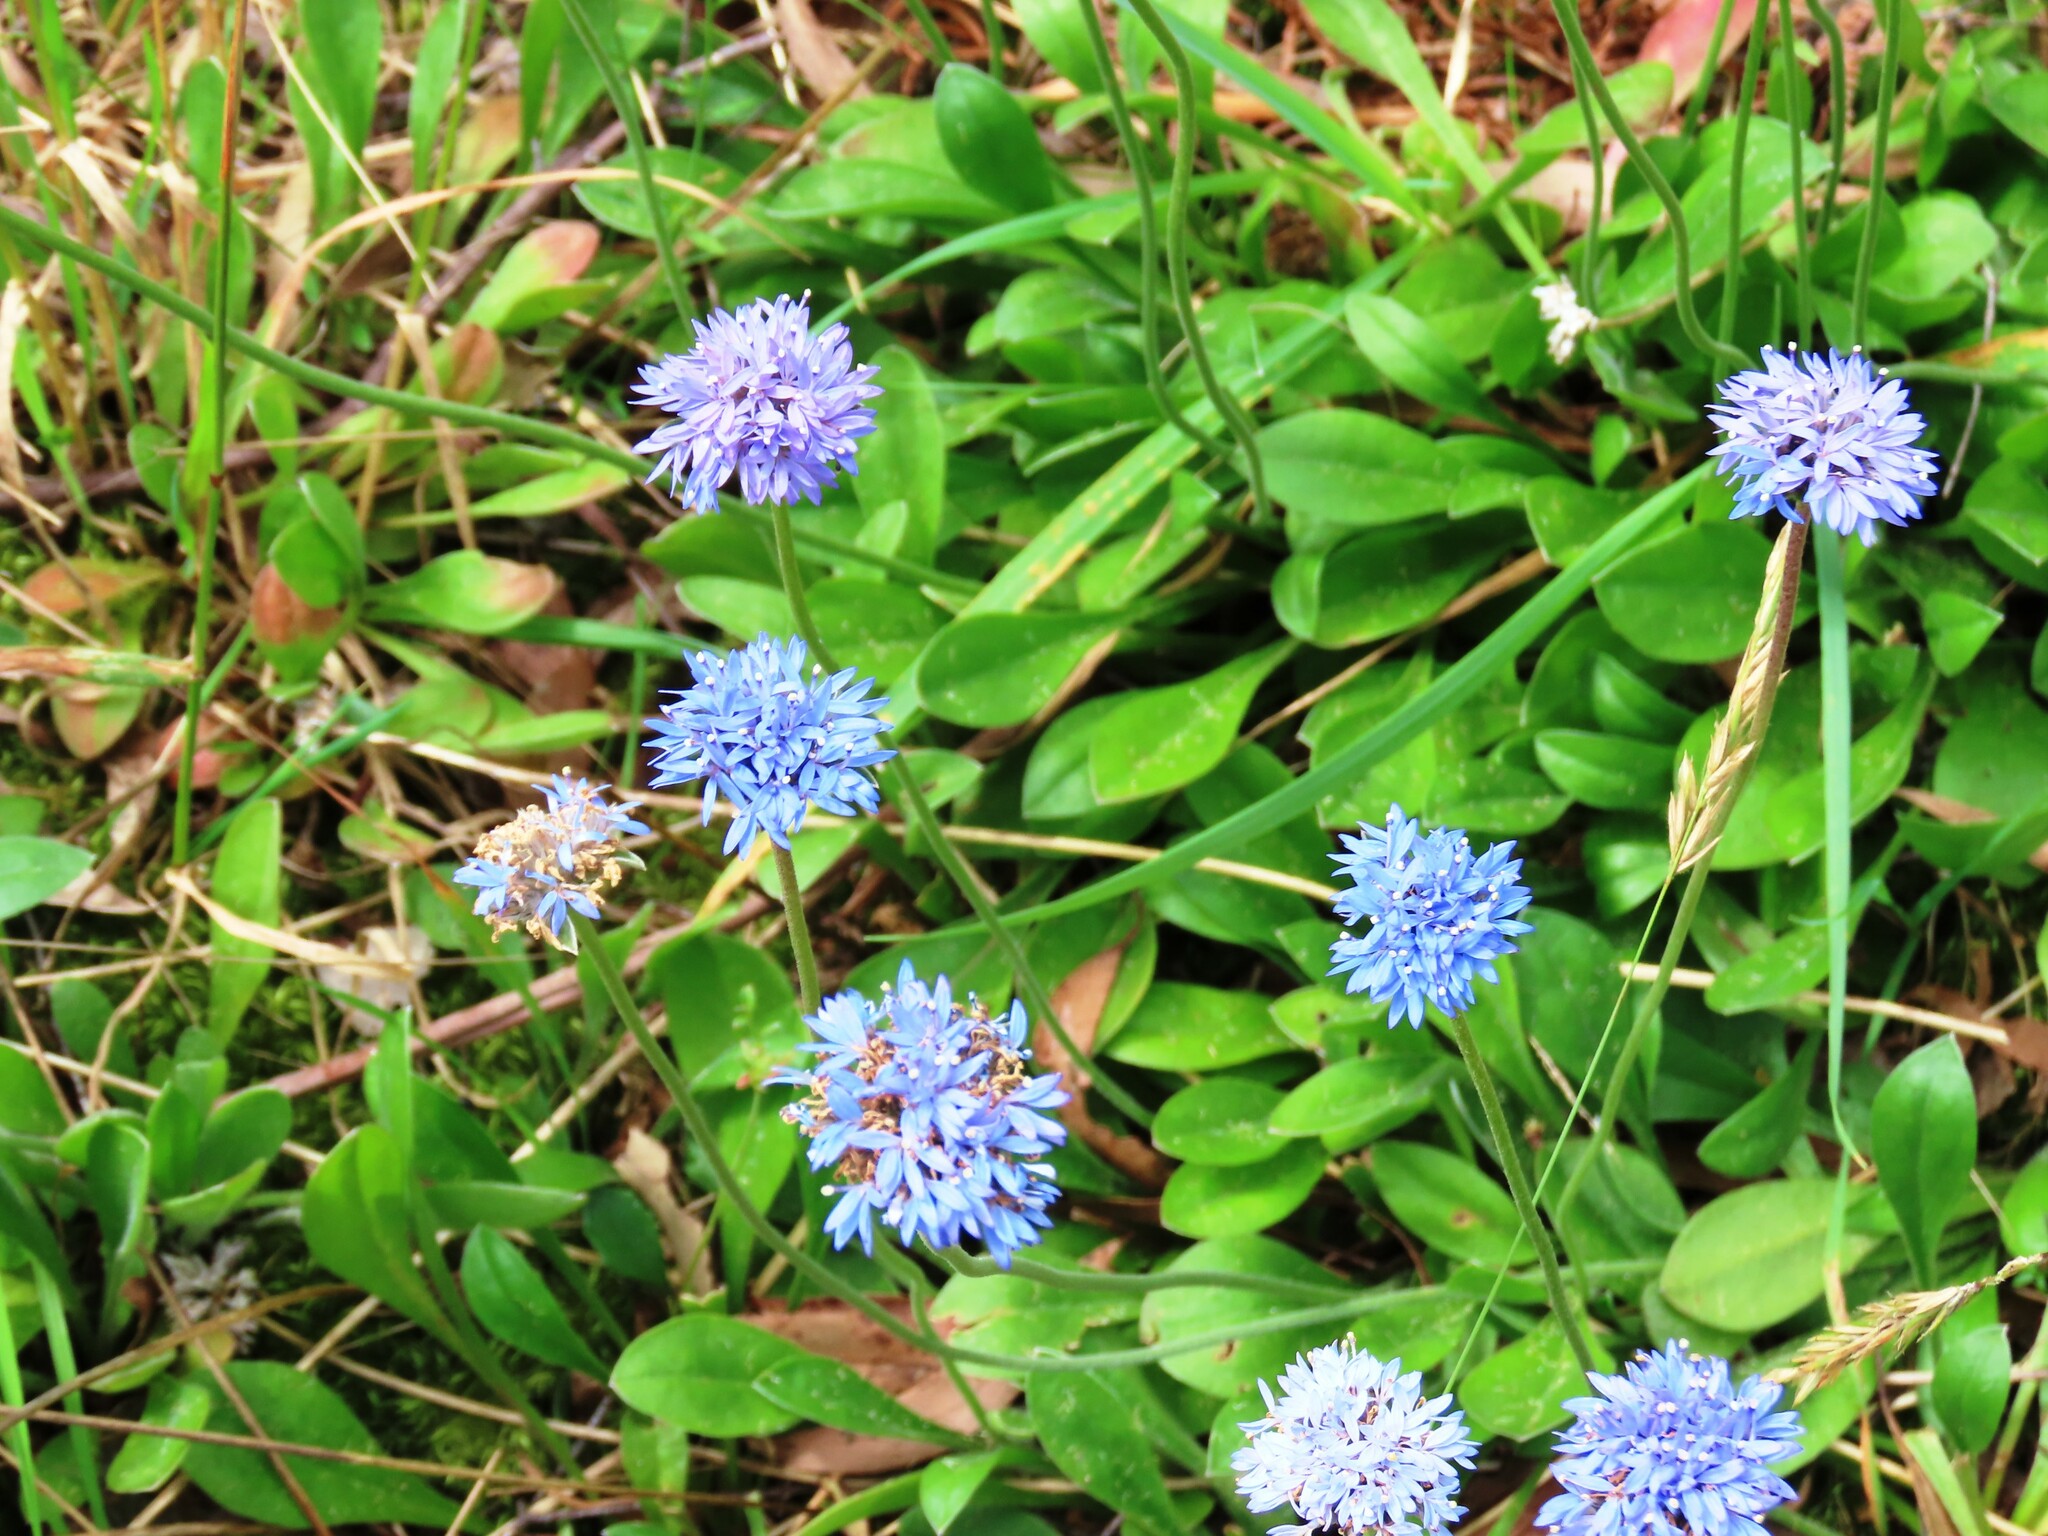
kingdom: Plantae
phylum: Tracheophyta
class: Magnoliopsida
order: Asterales
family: Goodeniaceae
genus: Brunonia
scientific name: Brunonia australis
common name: Blue pincushion
